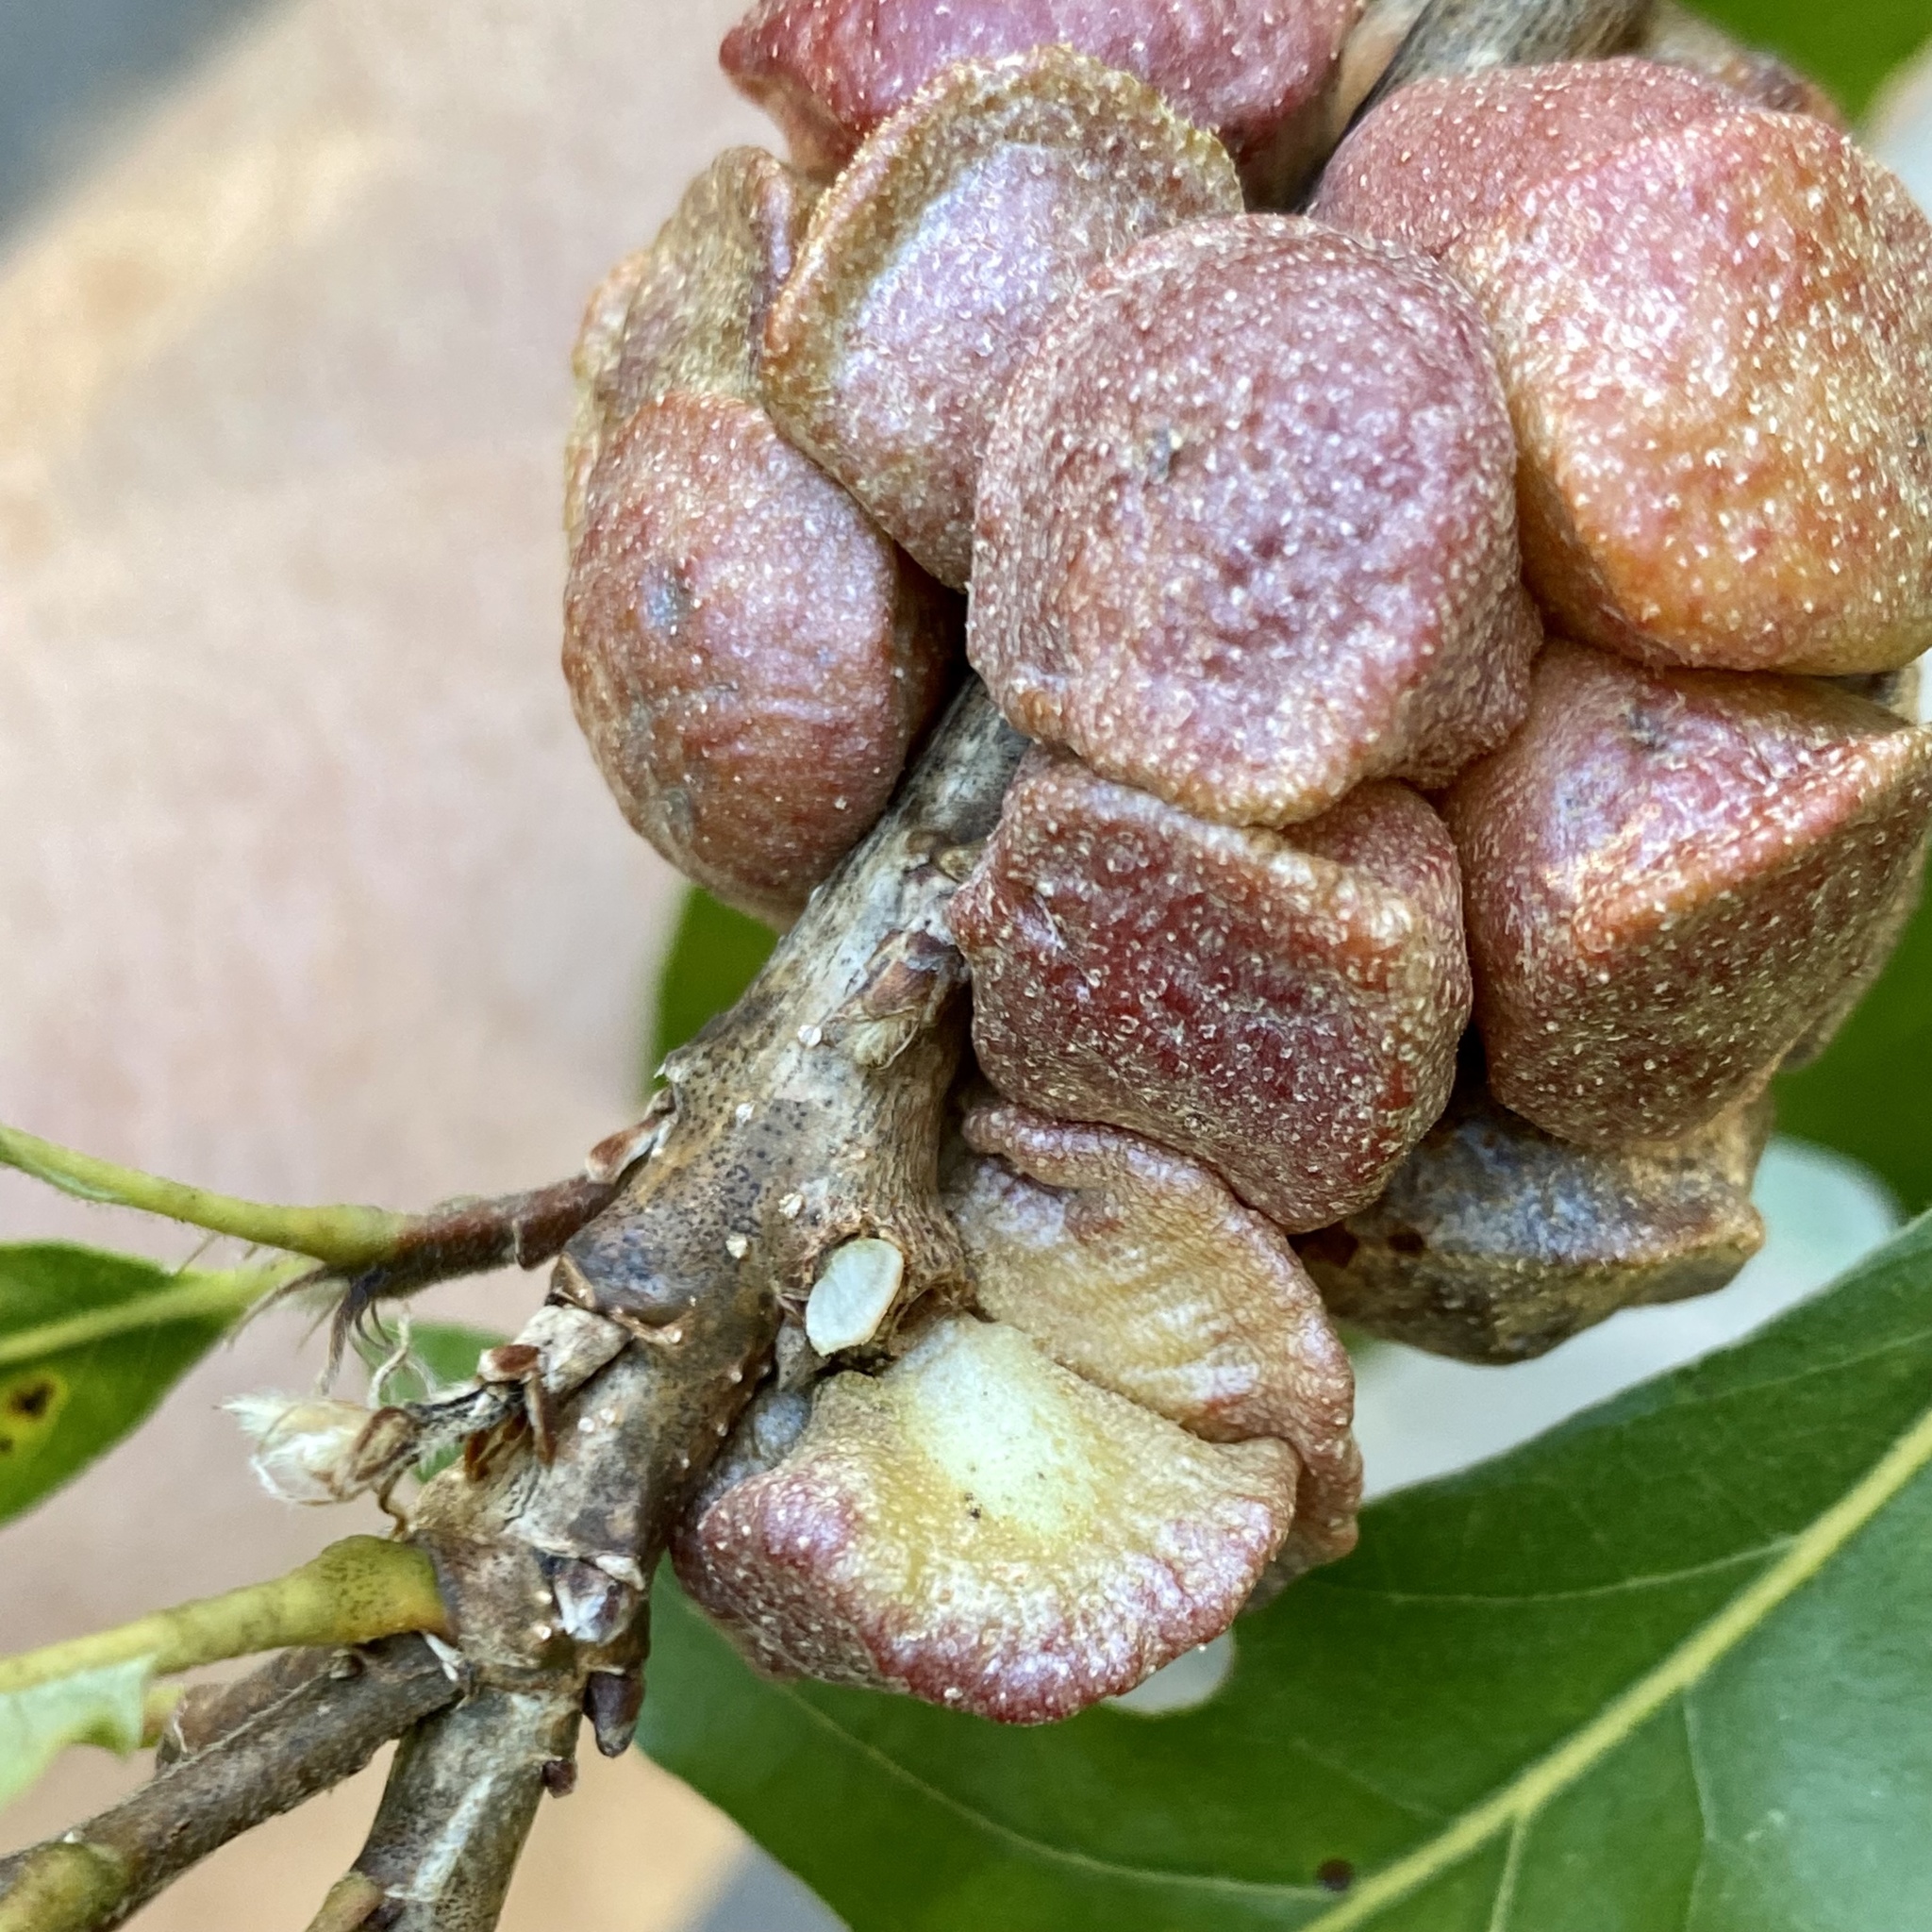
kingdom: Animalia
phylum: Arthropoda
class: Insecta
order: Hymenoptera
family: Cynipidae
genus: Andricus
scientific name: Andricus
